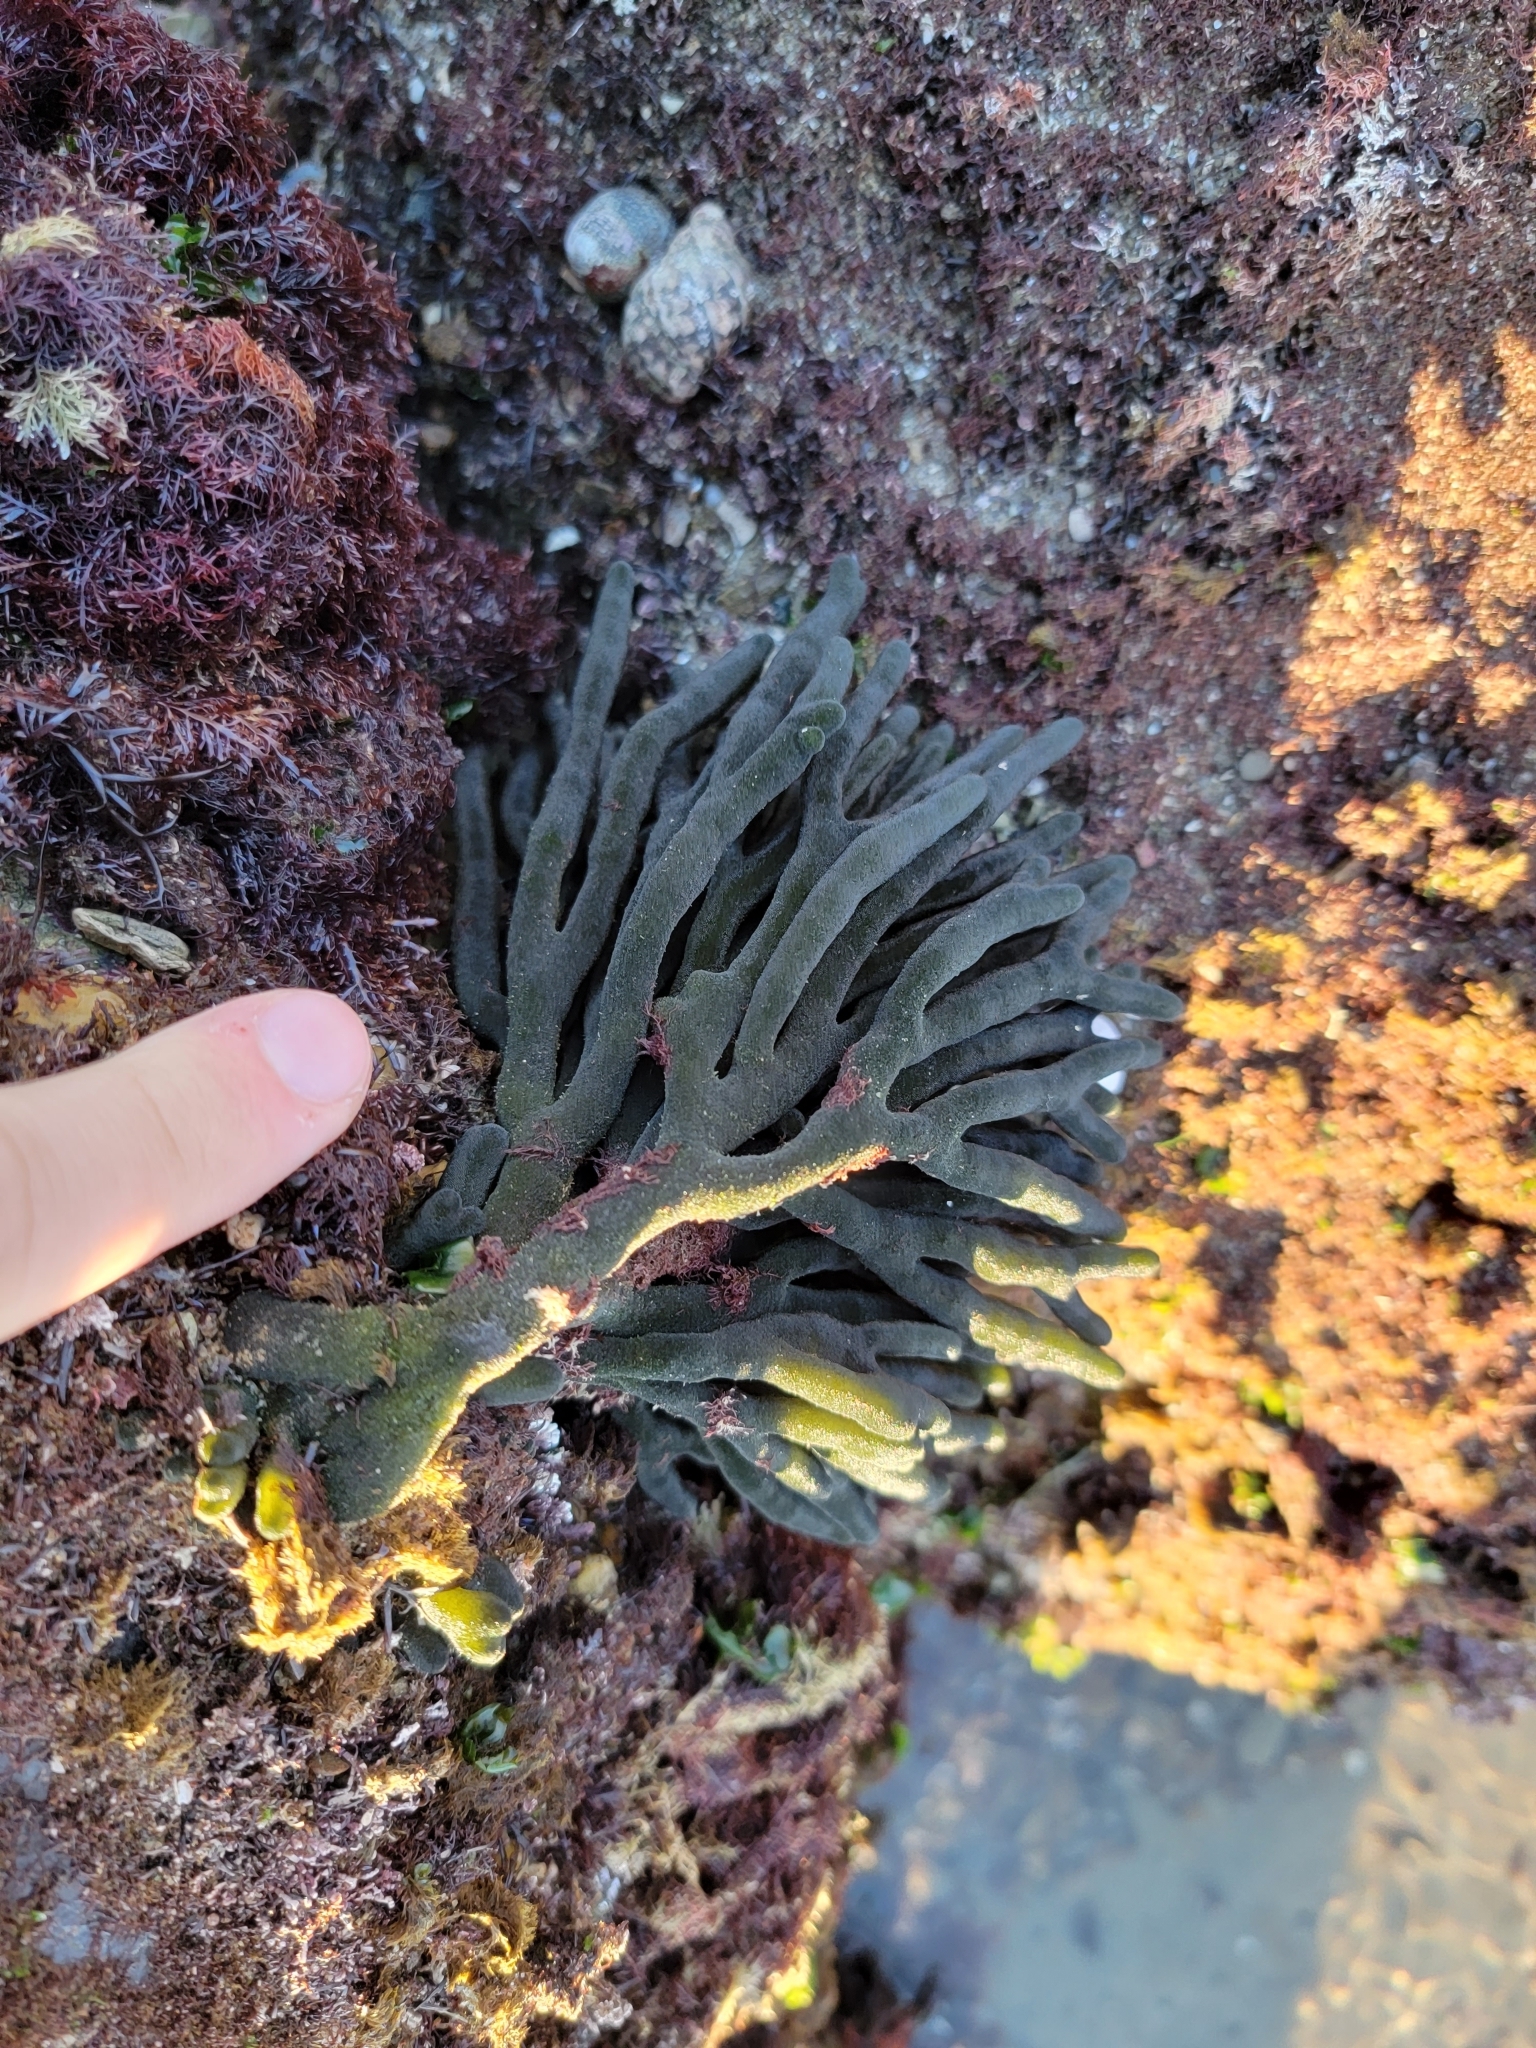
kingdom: Plantae
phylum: Chlorophyta
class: Ulvophyceae
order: Bryopsidales
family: Codiaceae
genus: Codium
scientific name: Codium fragile
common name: Dead man's fingers
